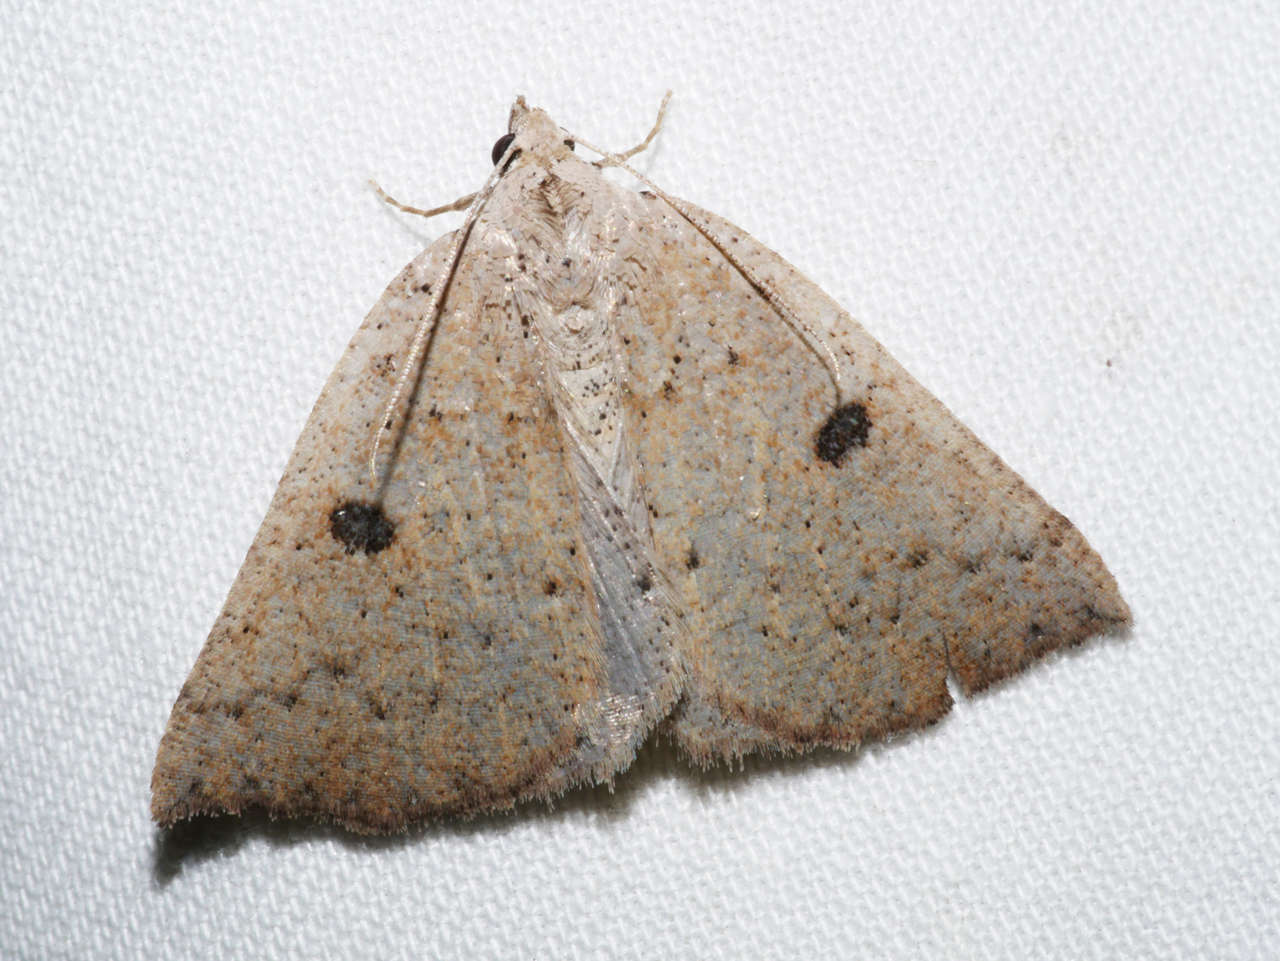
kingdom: Animalia
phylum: Arthropoda
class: Insecta
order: Lepidoptera
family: Geometridae
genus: Amelora
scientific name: Amelora demistis
